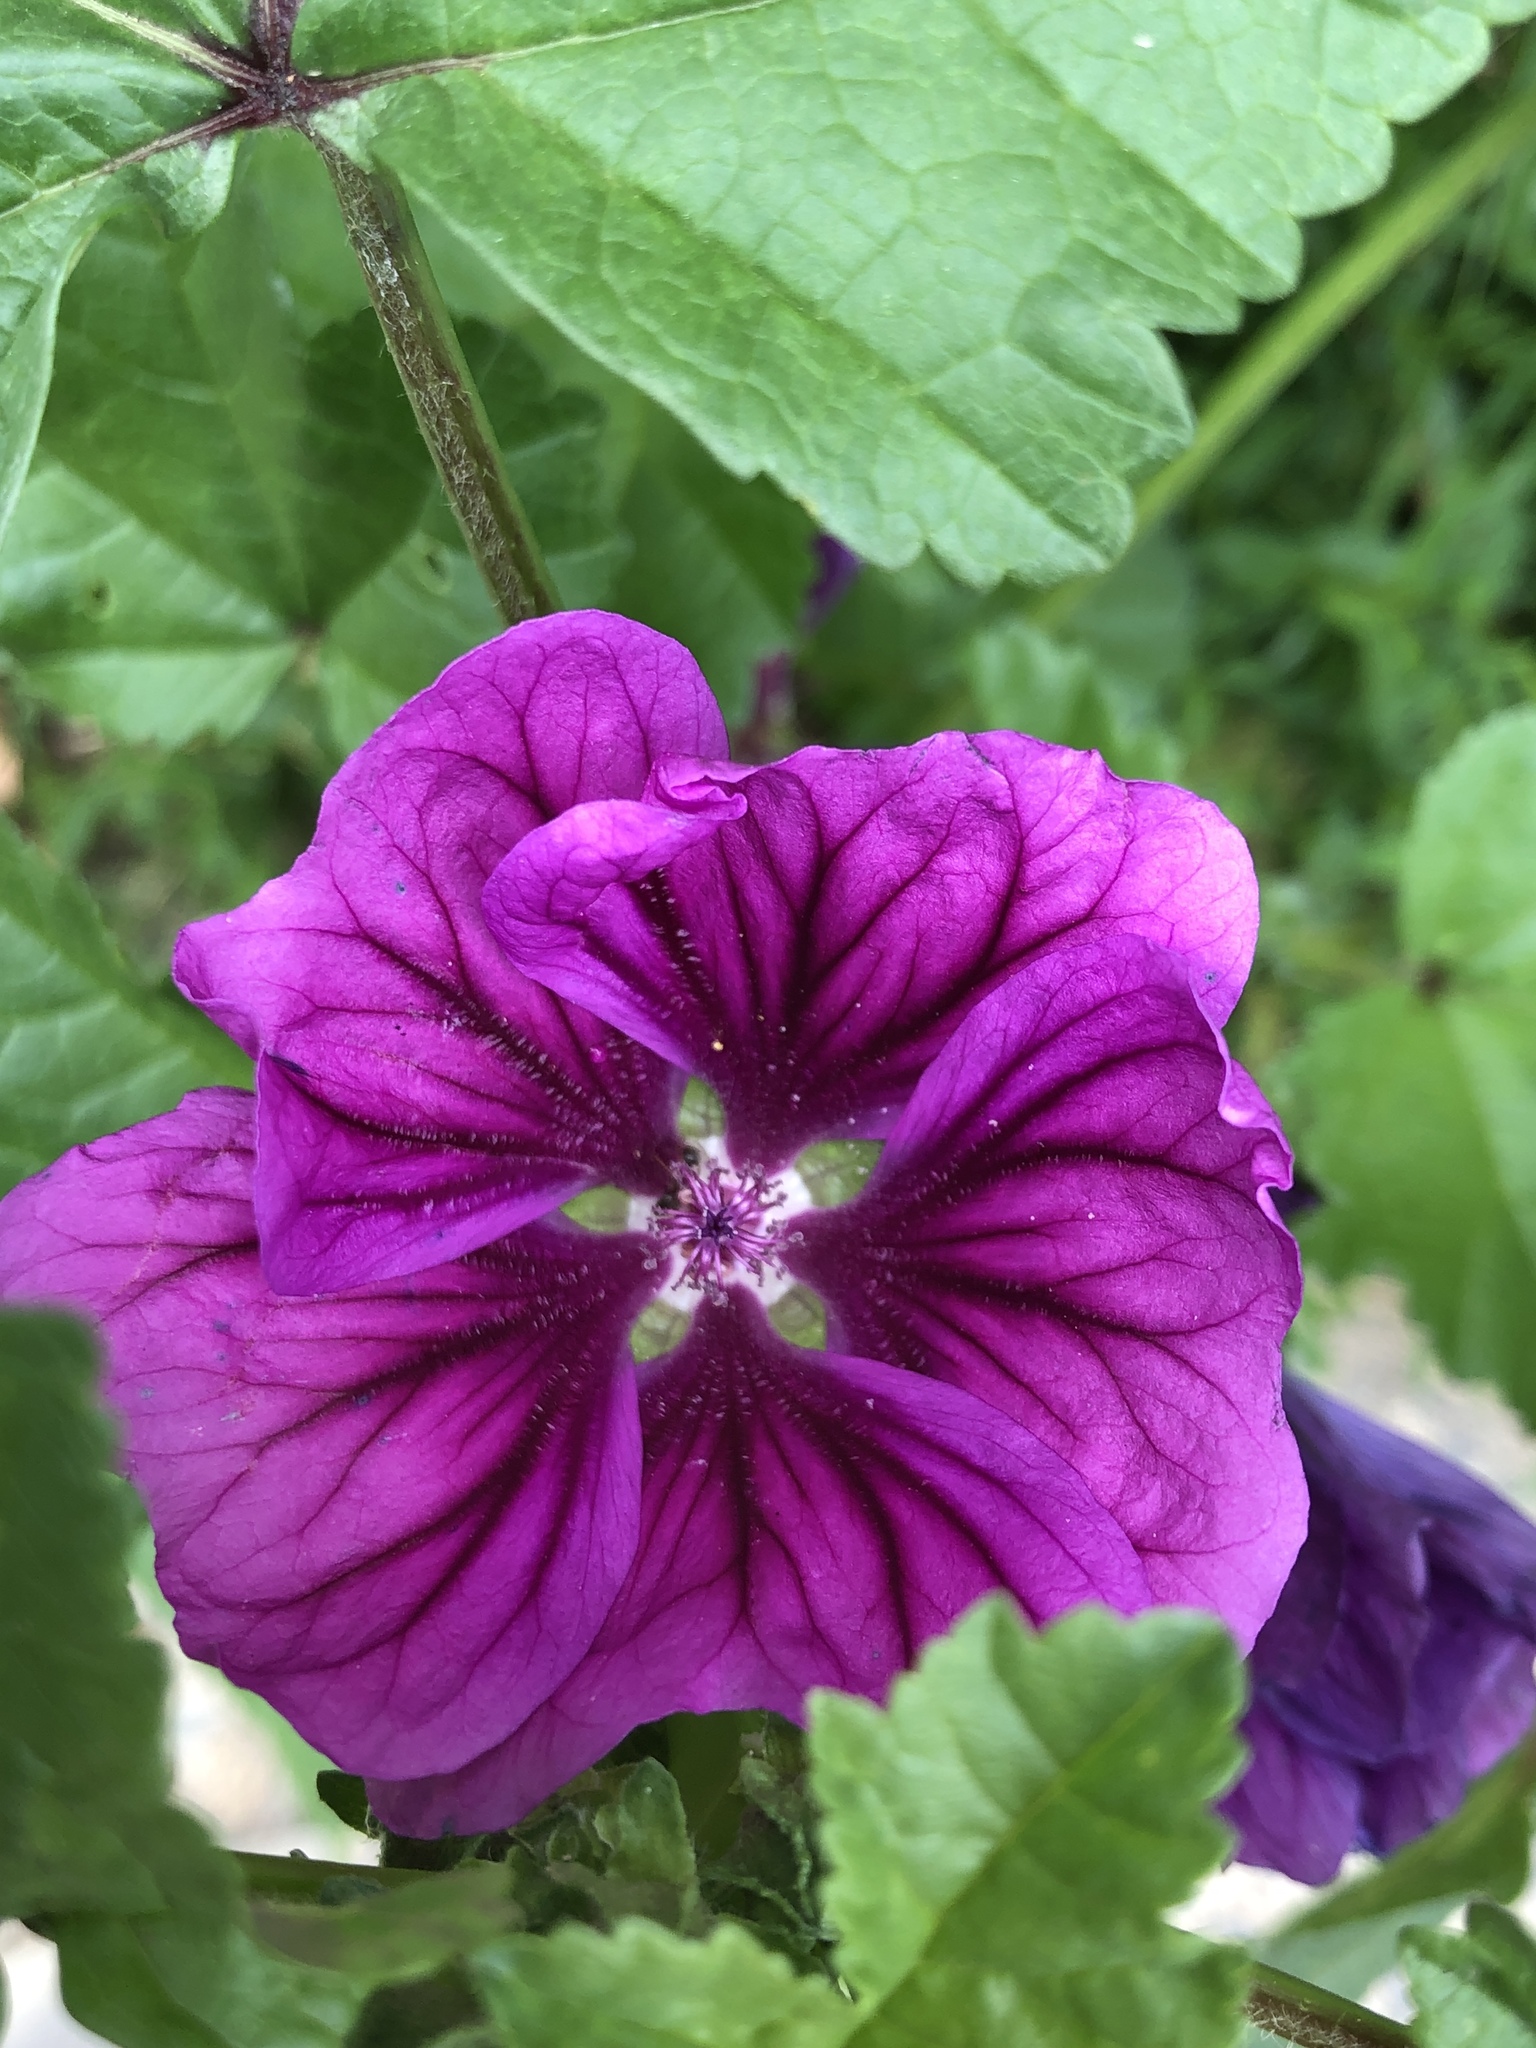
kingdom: Plantae
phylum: Tracheophyta
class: Magnoliopsida
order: Malvales
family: Malvaceae
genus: Malva
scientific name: Malva sylvestris
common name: Common mallow
